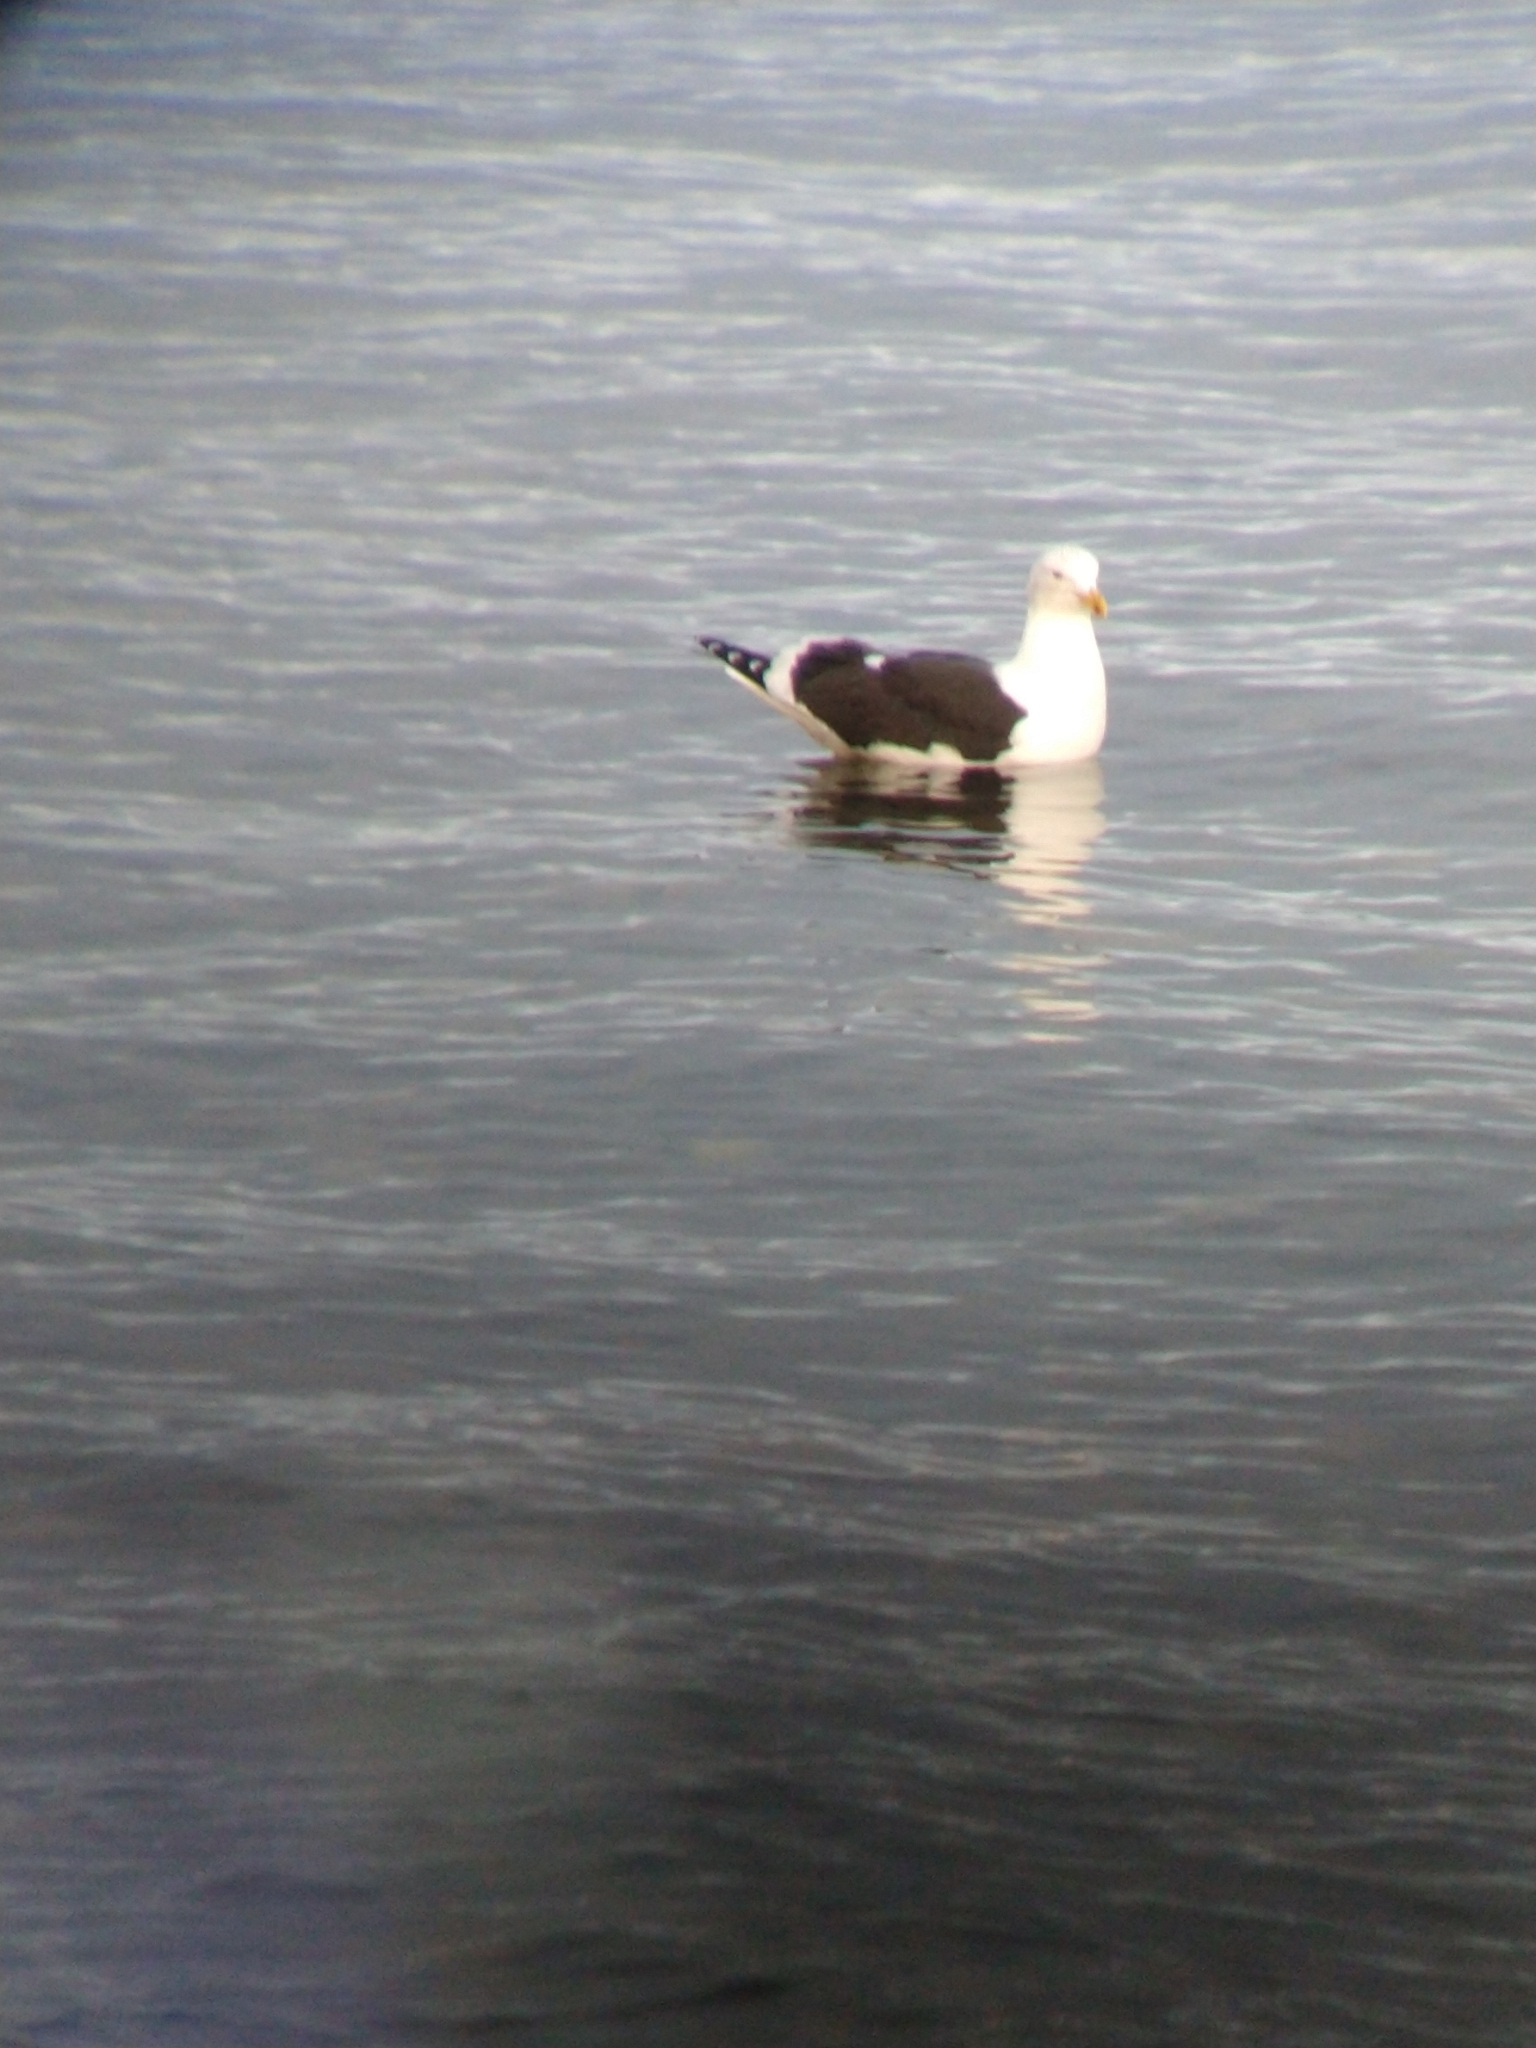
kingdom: Animalia
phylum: Chordata
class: Aves
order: Charadriiformes
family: Laridae
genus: Larus
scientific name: Larus dominicanus
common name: Kelp gull
